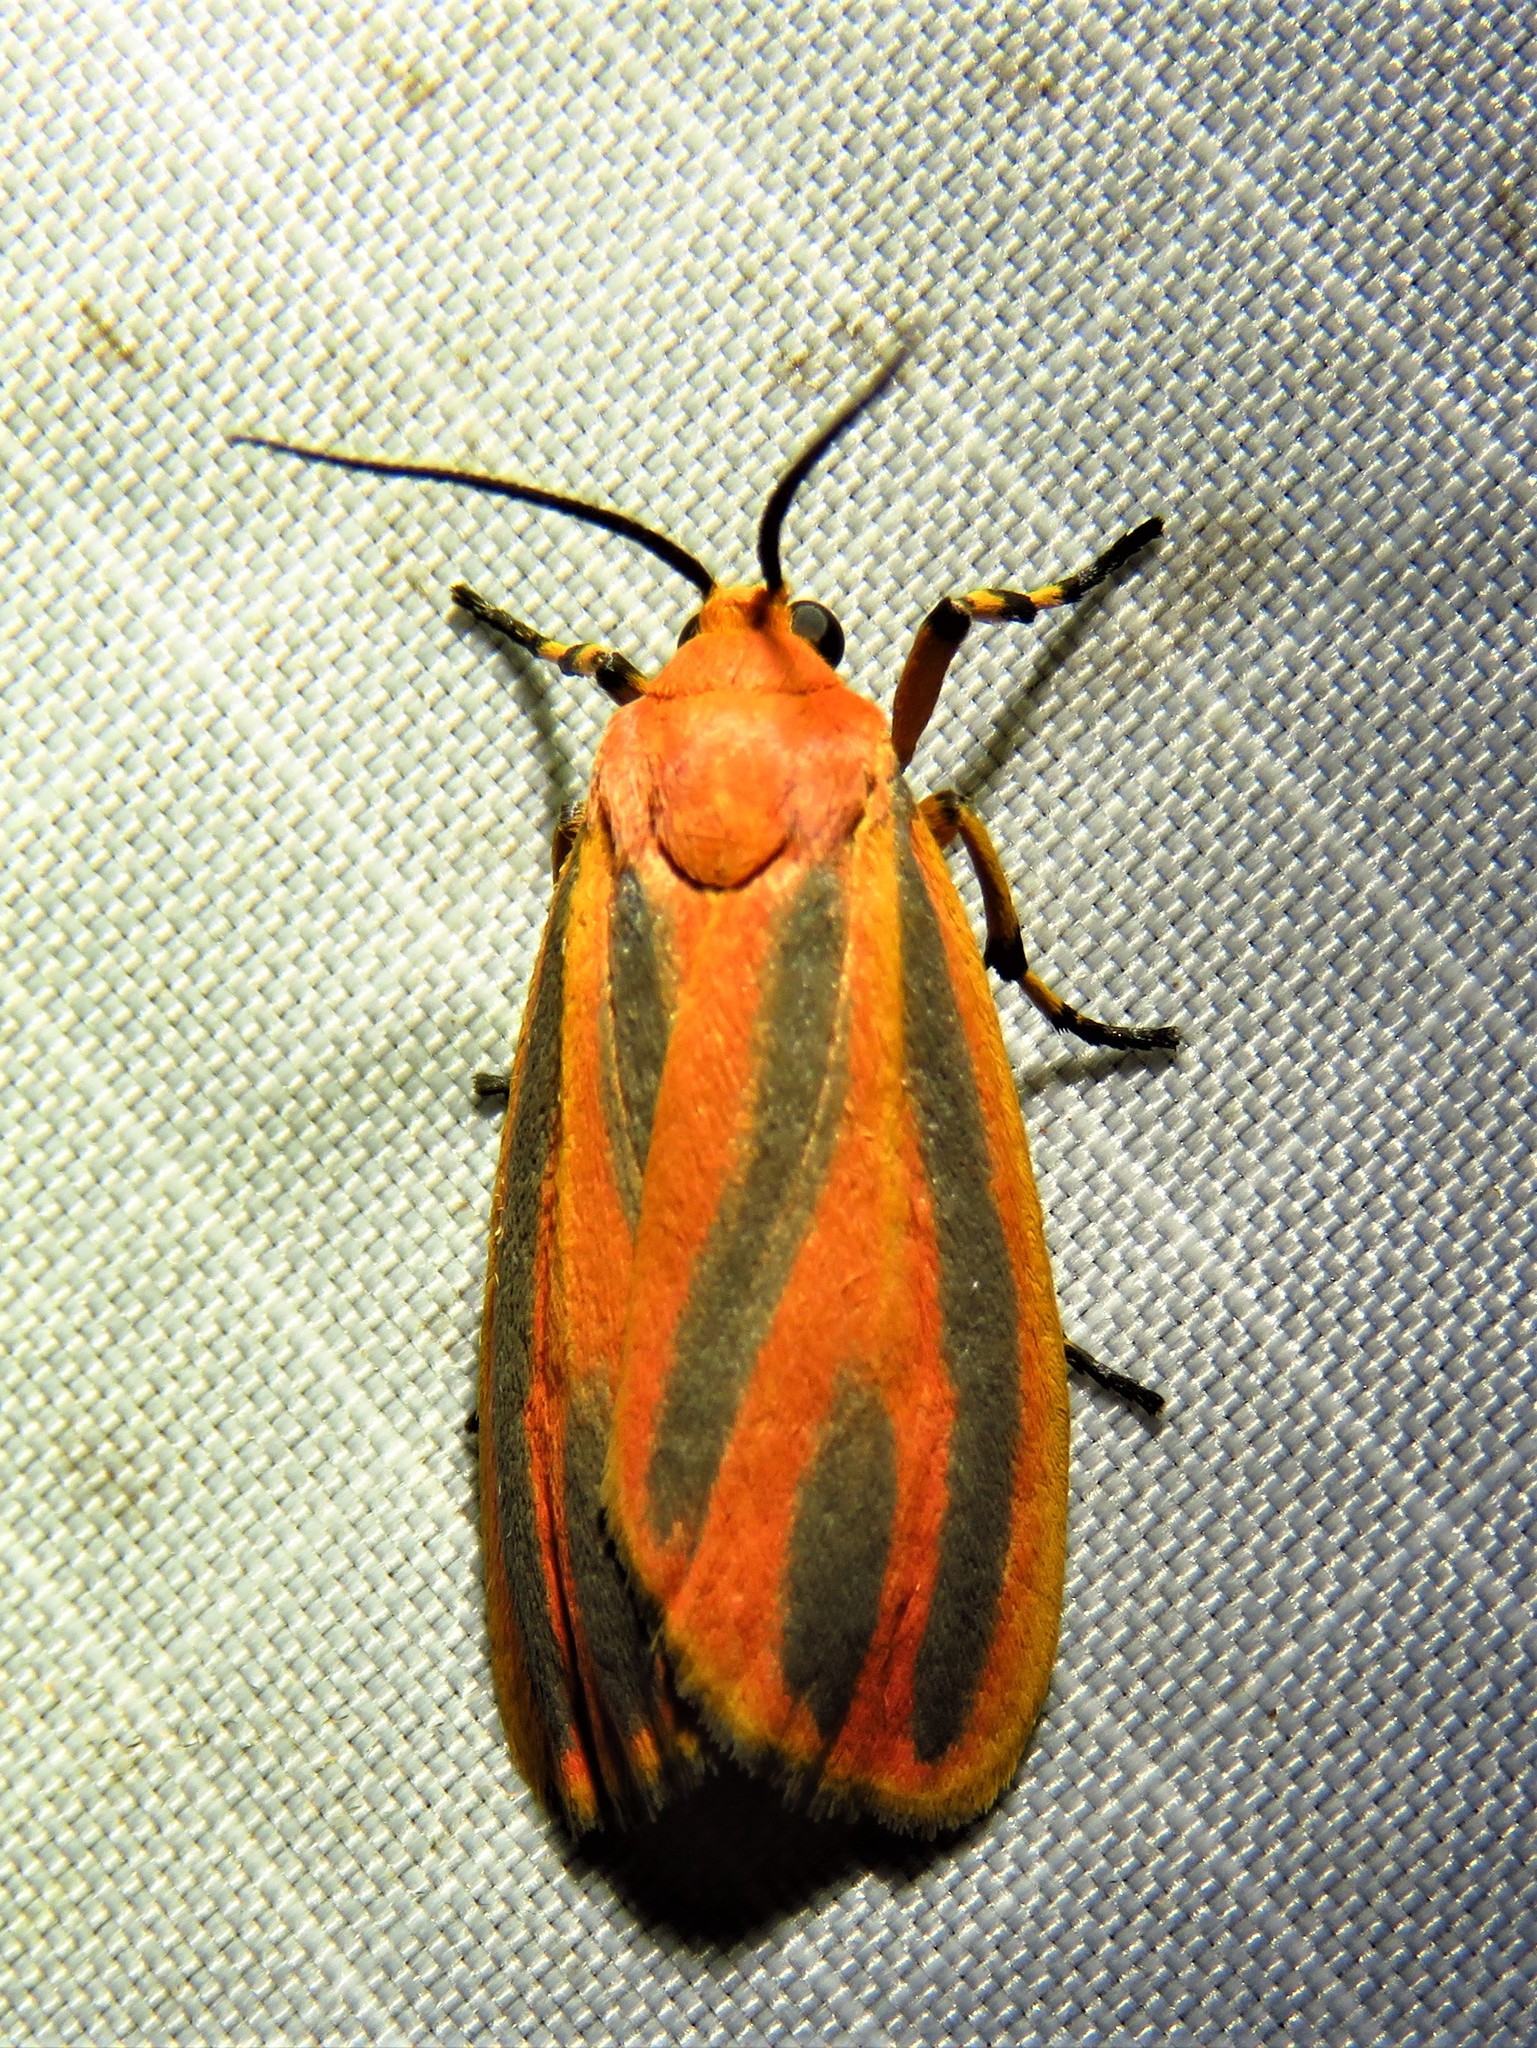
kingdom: Animalia
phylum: Arthropoda
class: Insecta
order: Lepidoptera
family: Erebidae
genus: Hypoprepia
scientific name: Hypoprepia miniata
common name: Scarlet-winged lichen moth
